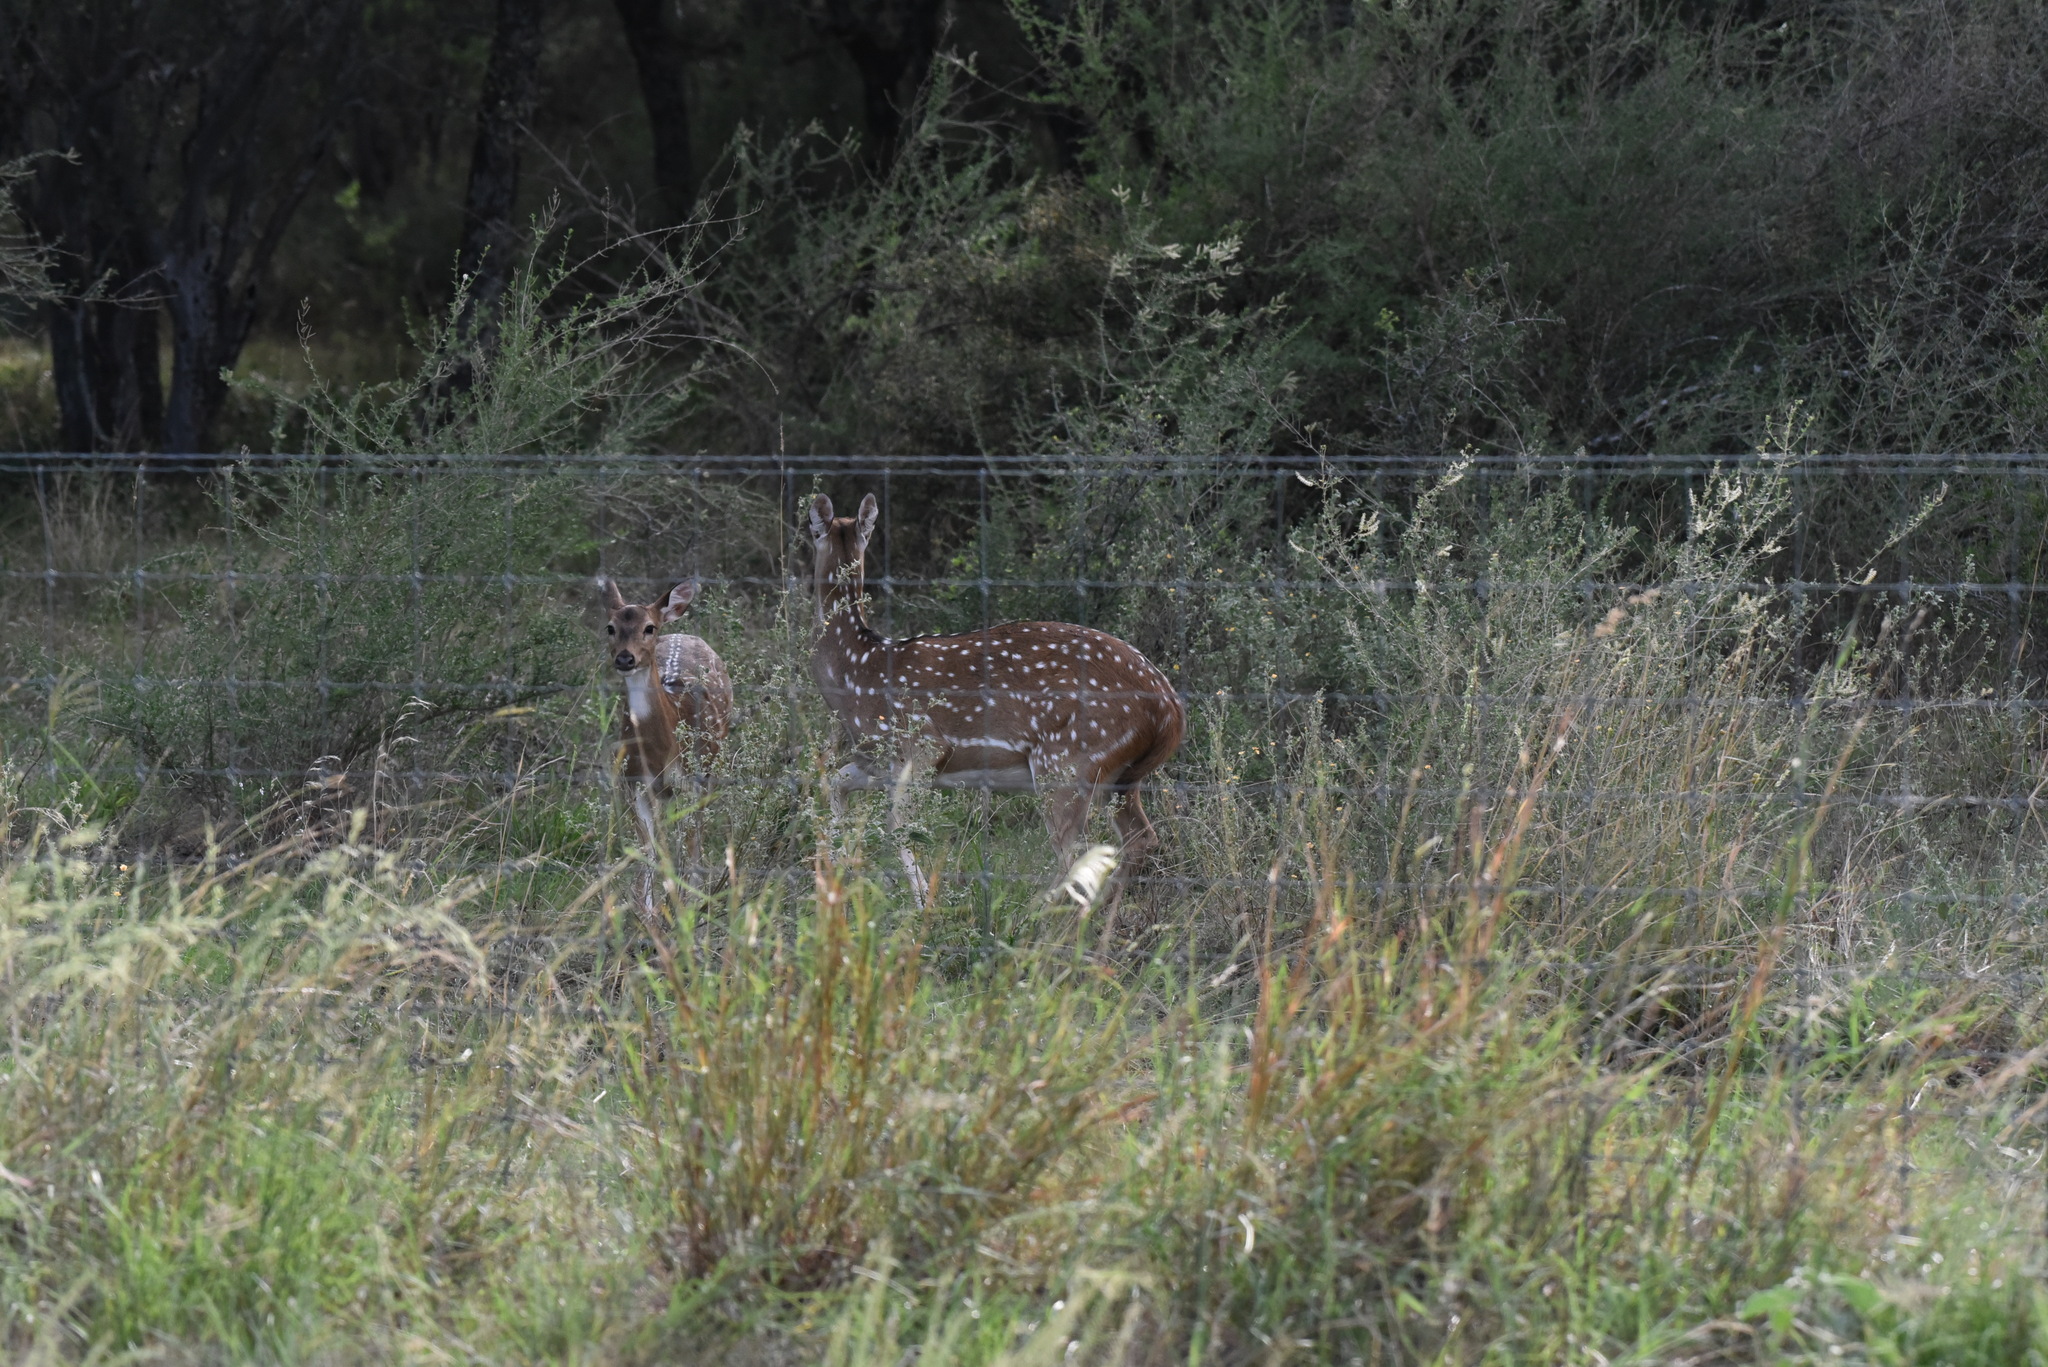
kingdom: Animalia
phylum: Chordata
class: Mammalia
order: Artiodactyla
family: Cervidae
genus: Axis
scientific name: Axis axis
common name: Chital
